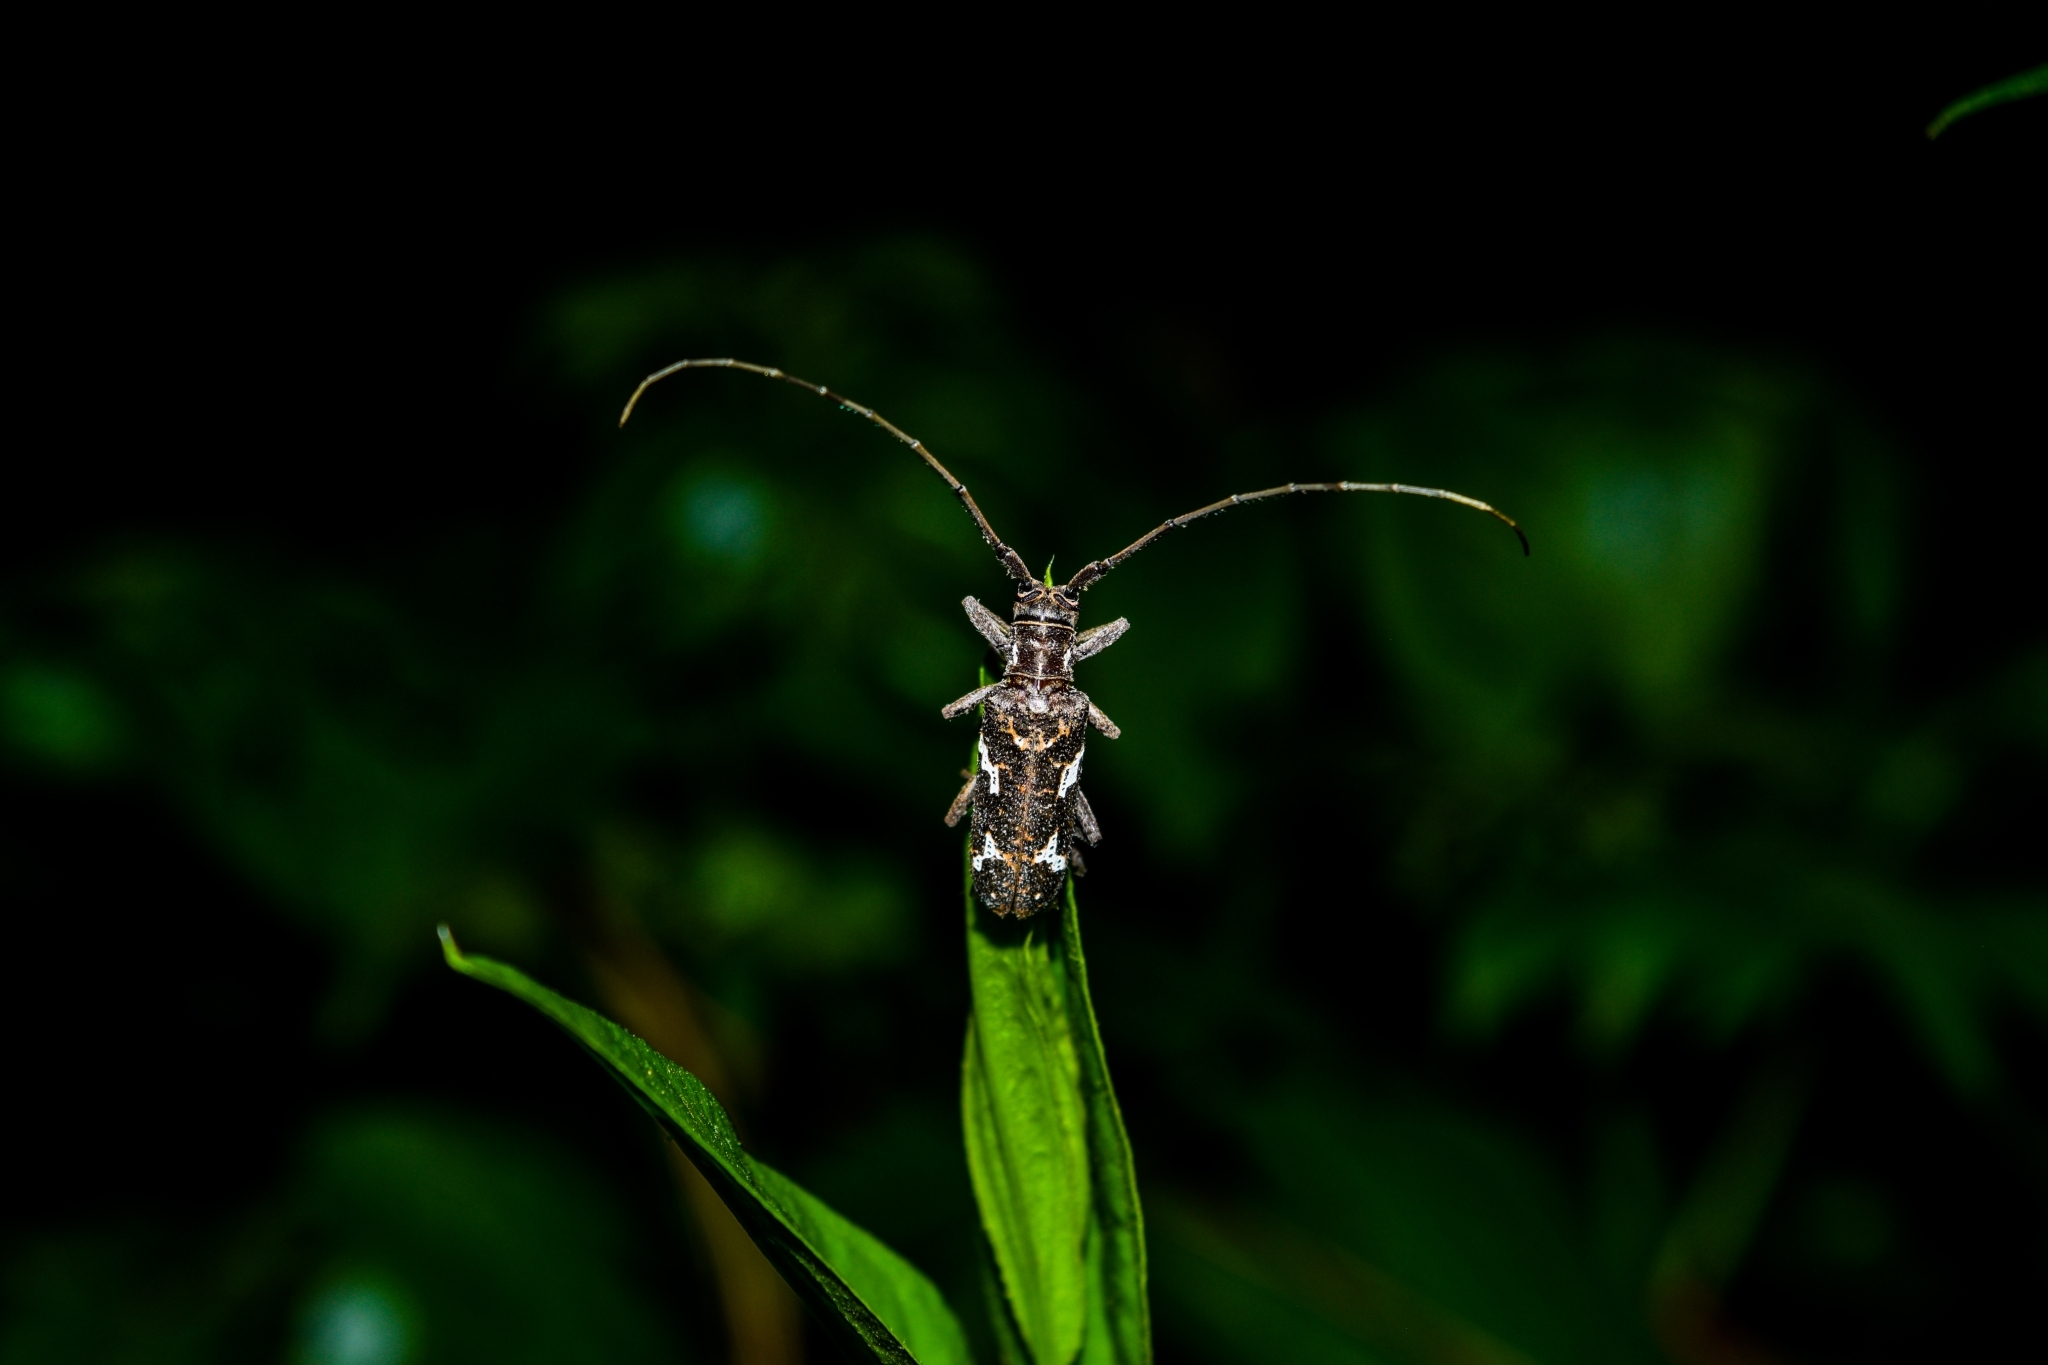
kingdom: Animalia
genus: Hammatoderus
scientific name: Hammatoderus
